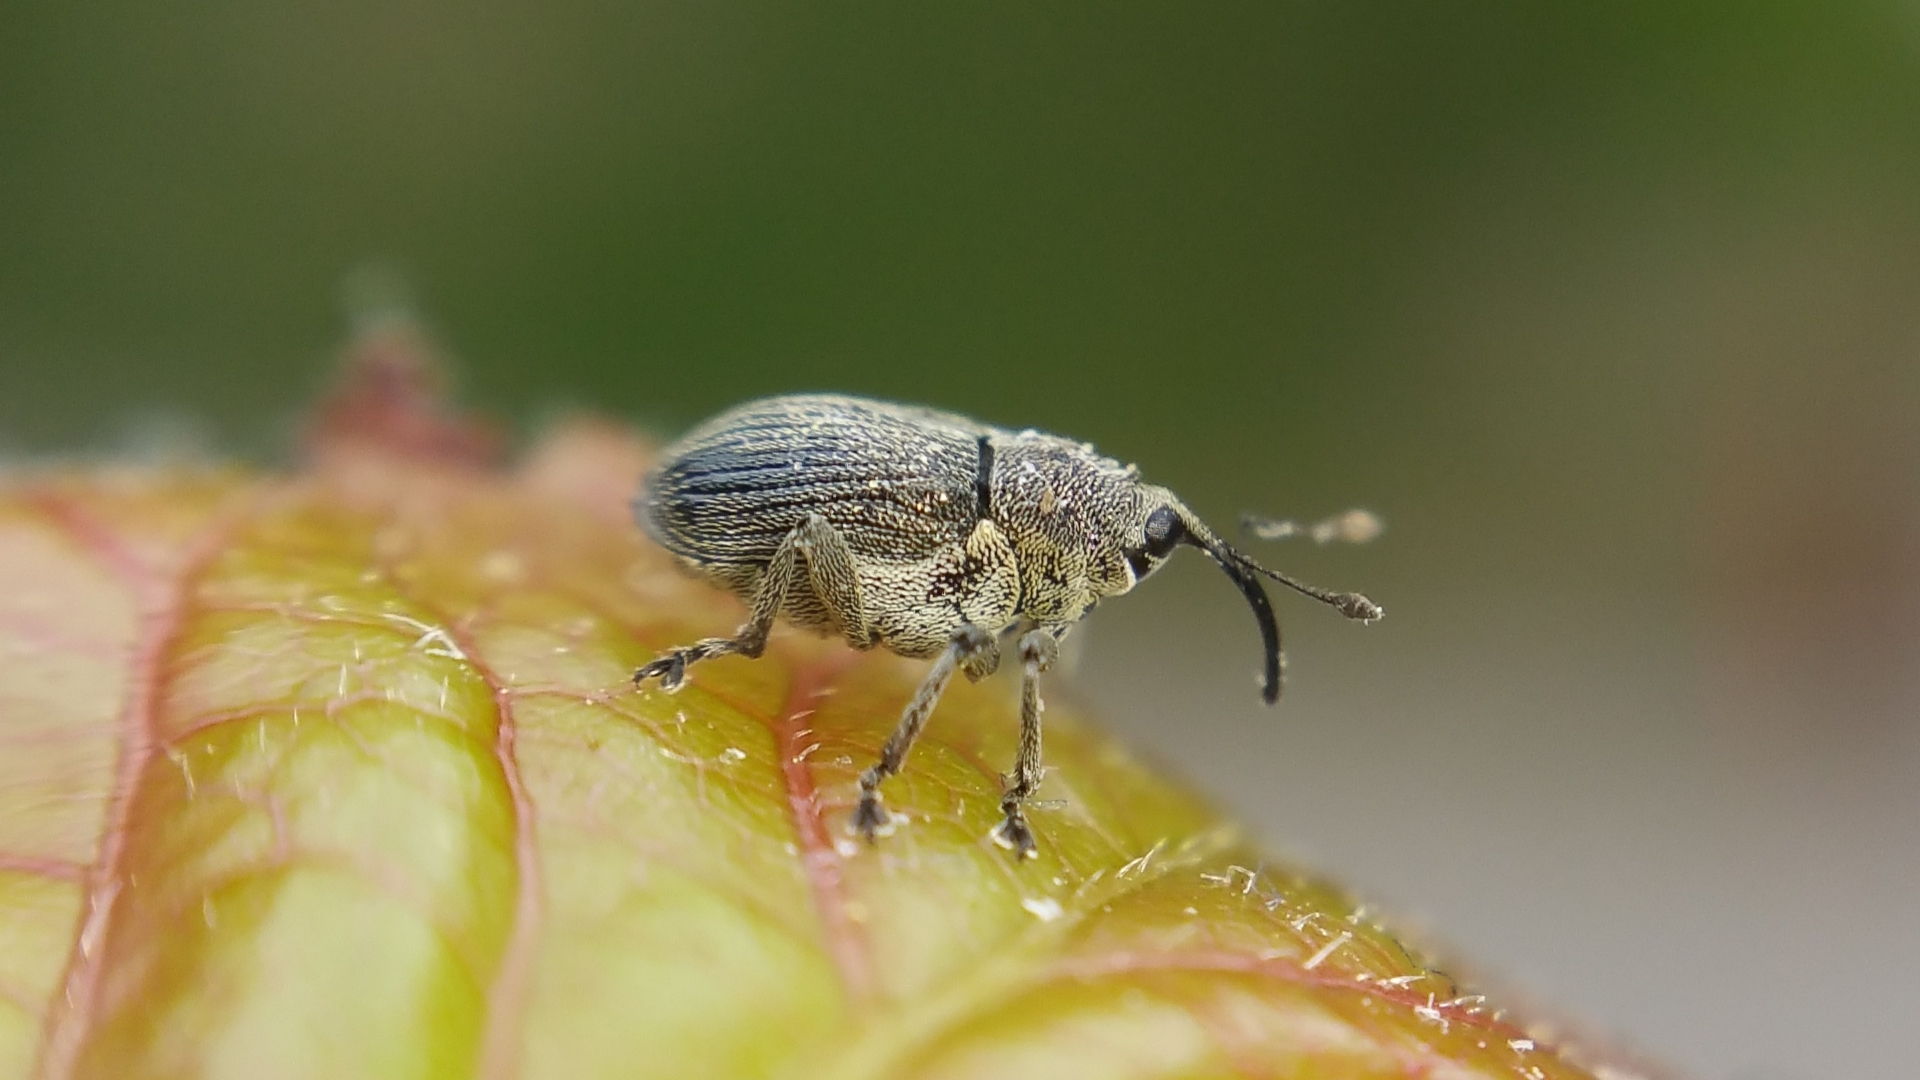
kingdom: Animalia
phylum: Arthropoda
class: Insecta
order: Coleoptera
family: Curculionidae
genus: Ceutorhynchus
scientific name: Ceutorhynchus obstrictus
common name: Cabbage seed weevil
